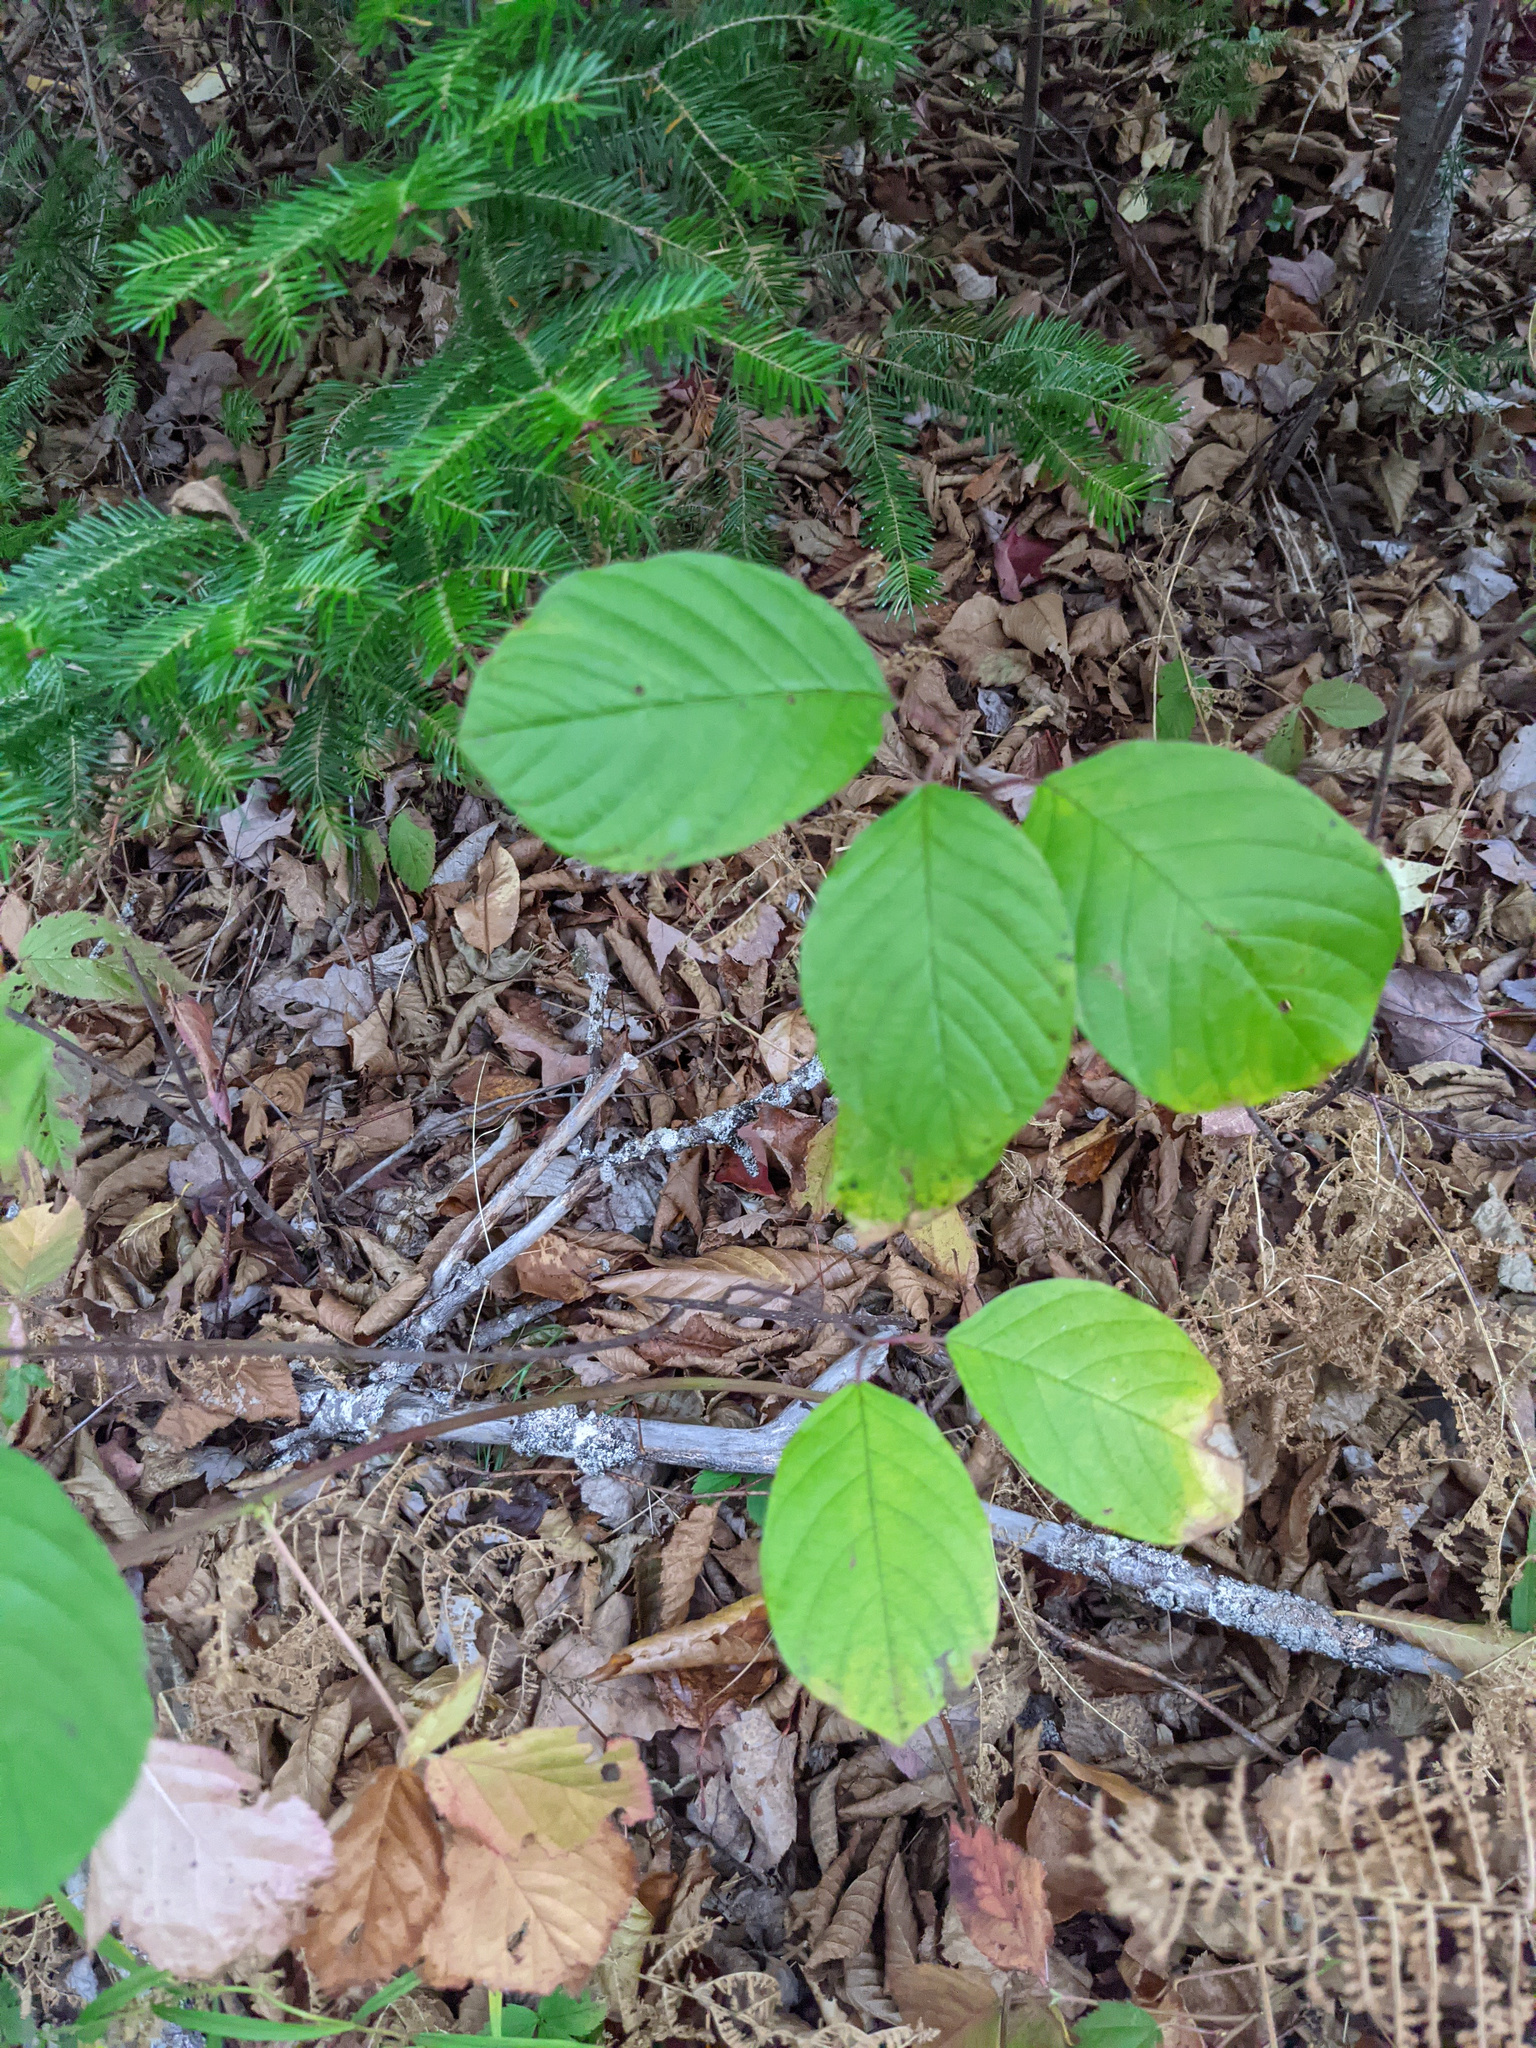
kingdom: Plantae
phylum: Tracheophyta
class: Magnoliopsida
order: Rosales
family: Rhamnaceae
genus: Frangula
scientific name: Frangula alnus
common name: Alder buckthorn
